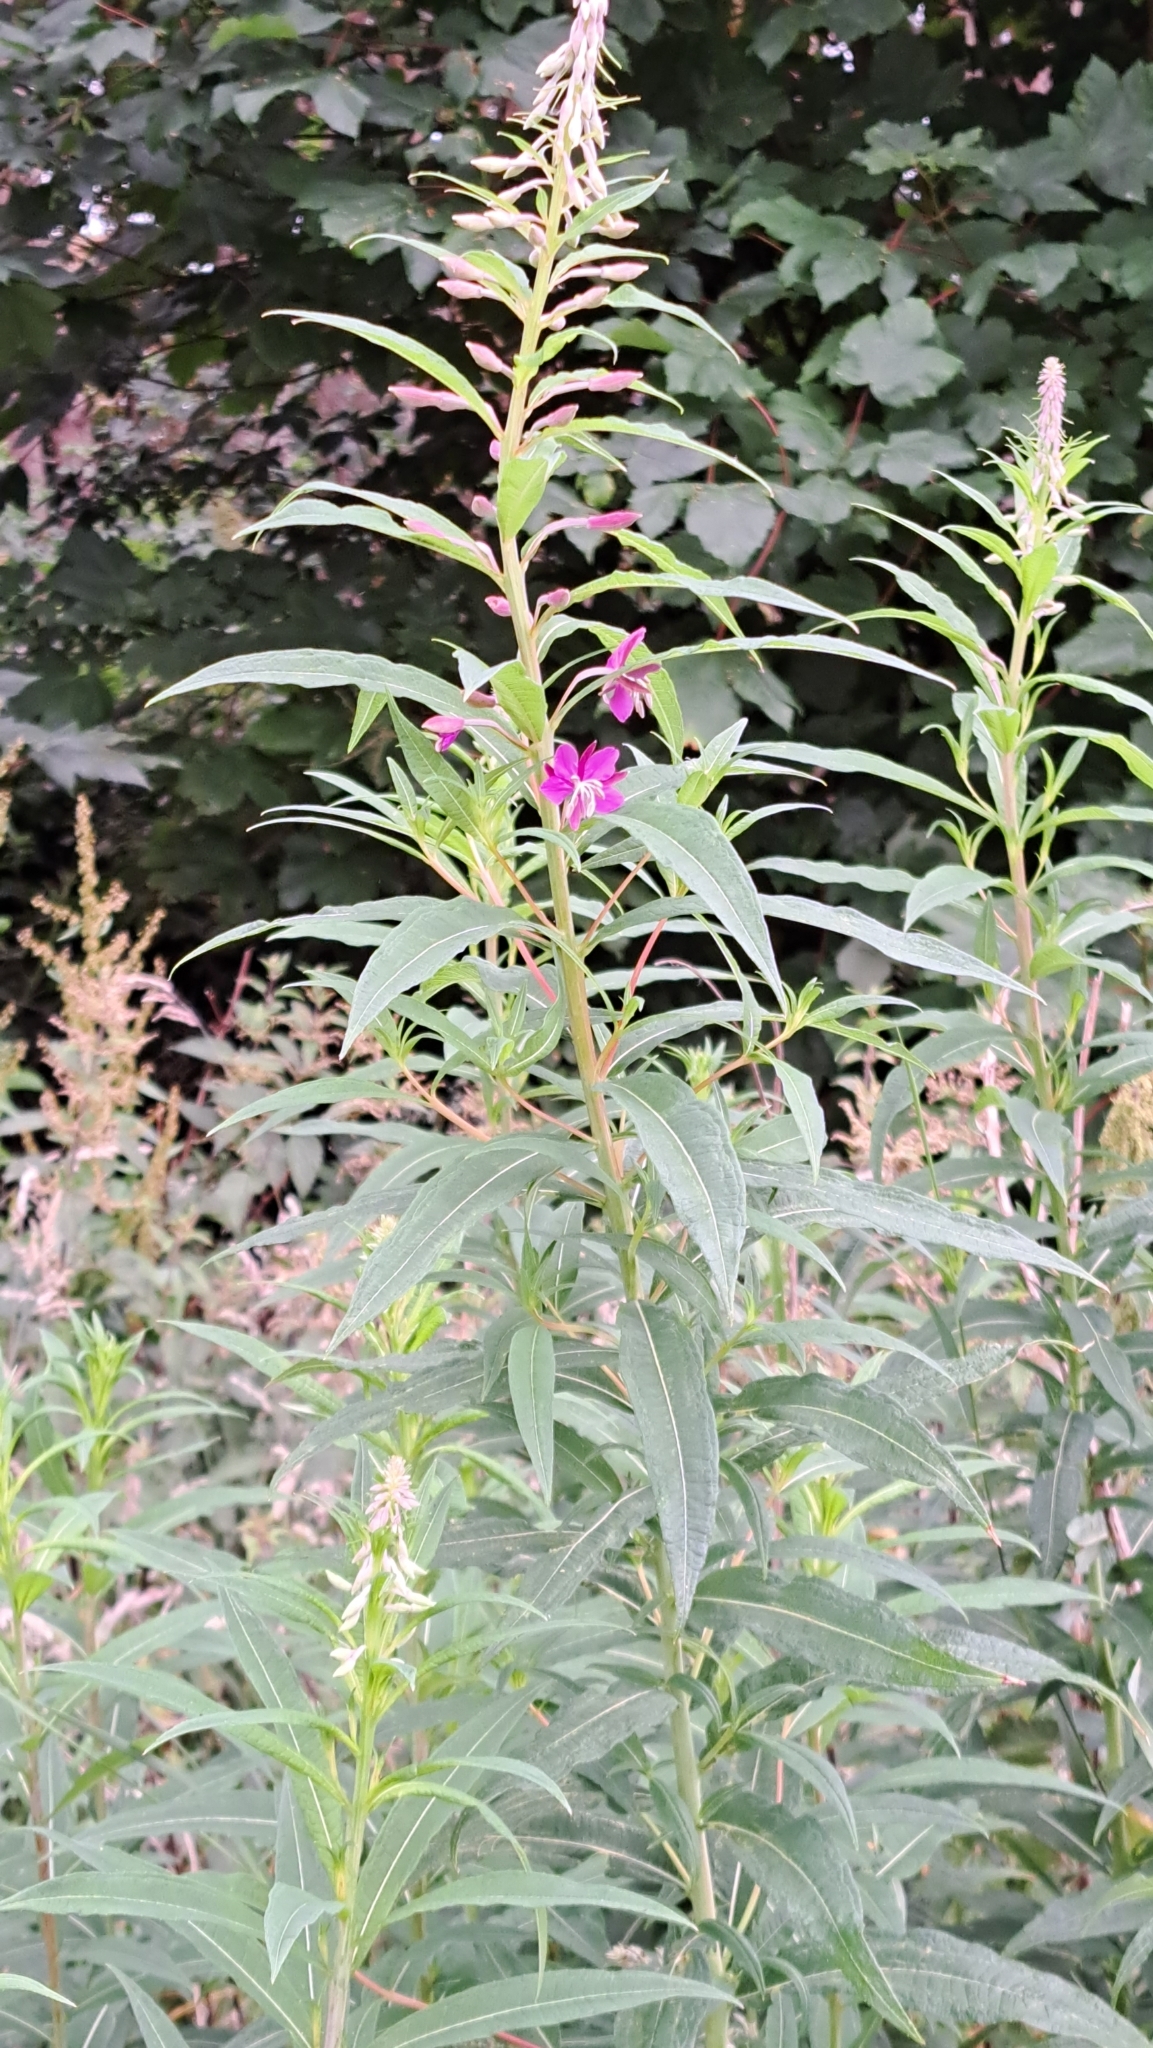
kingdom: Plantae
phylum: Tracheophyta
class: Magnoliopsida
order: Myrtales
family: Onagraceae
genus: Chamaenerion
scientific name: Chamaenerion angustifolium
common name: Fireweed
